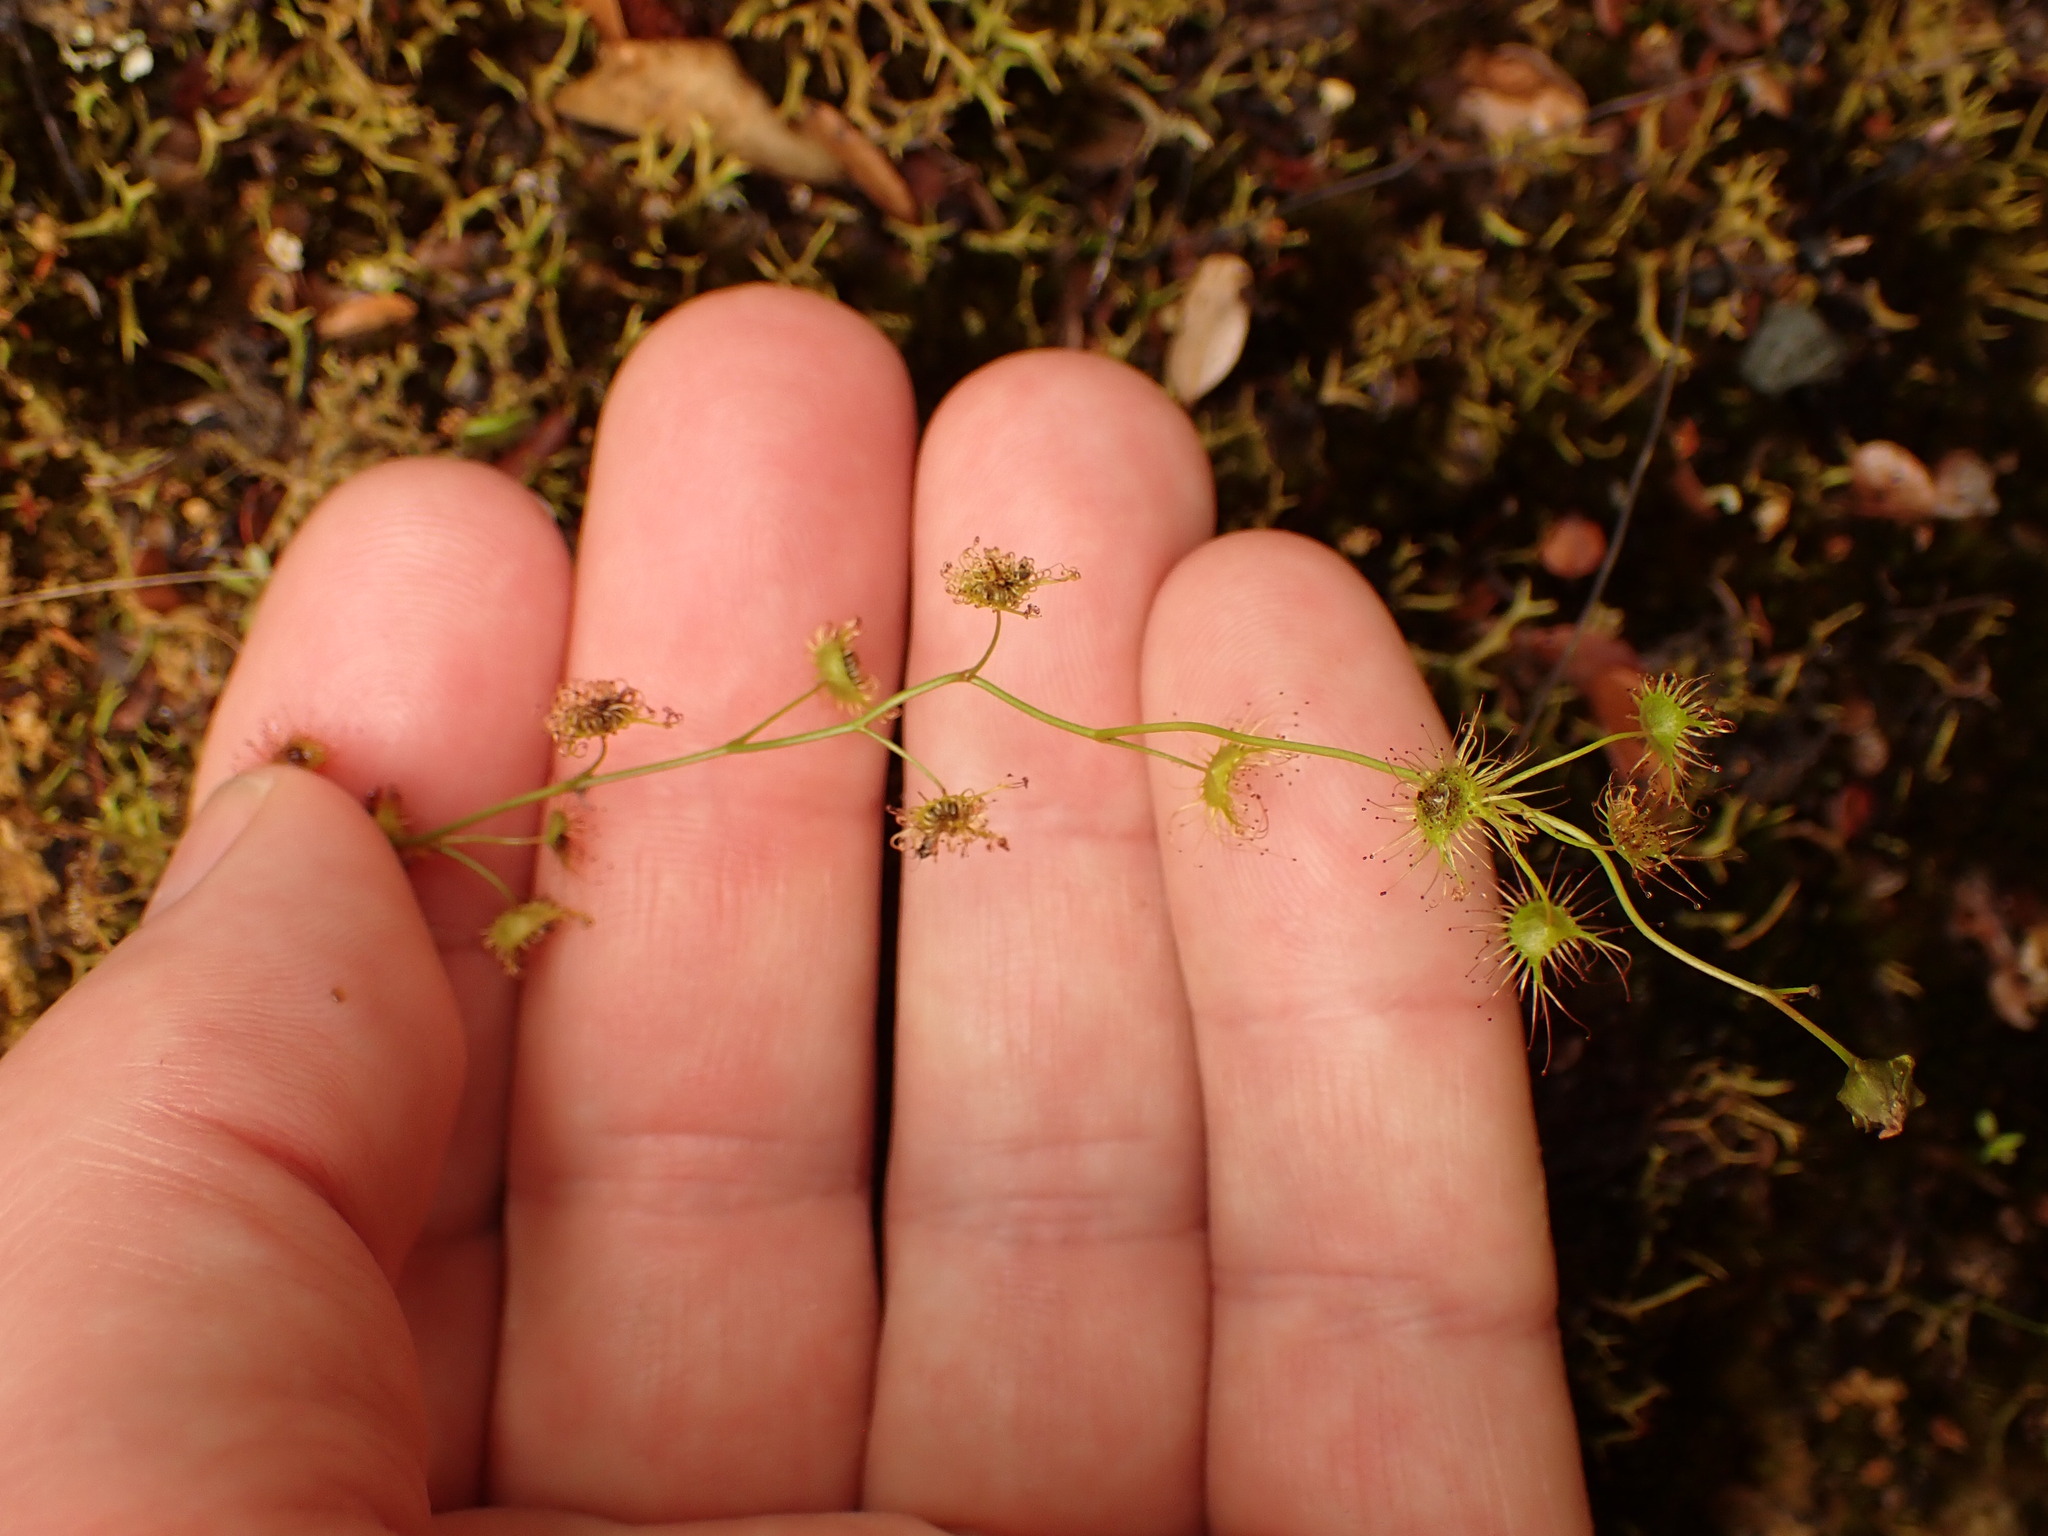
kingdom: Plantae
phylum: Tracheophyta
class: Magnoliopsida
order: Caryophyllales
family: Droseraceae
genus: Drosera
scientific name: Drosera peltata
